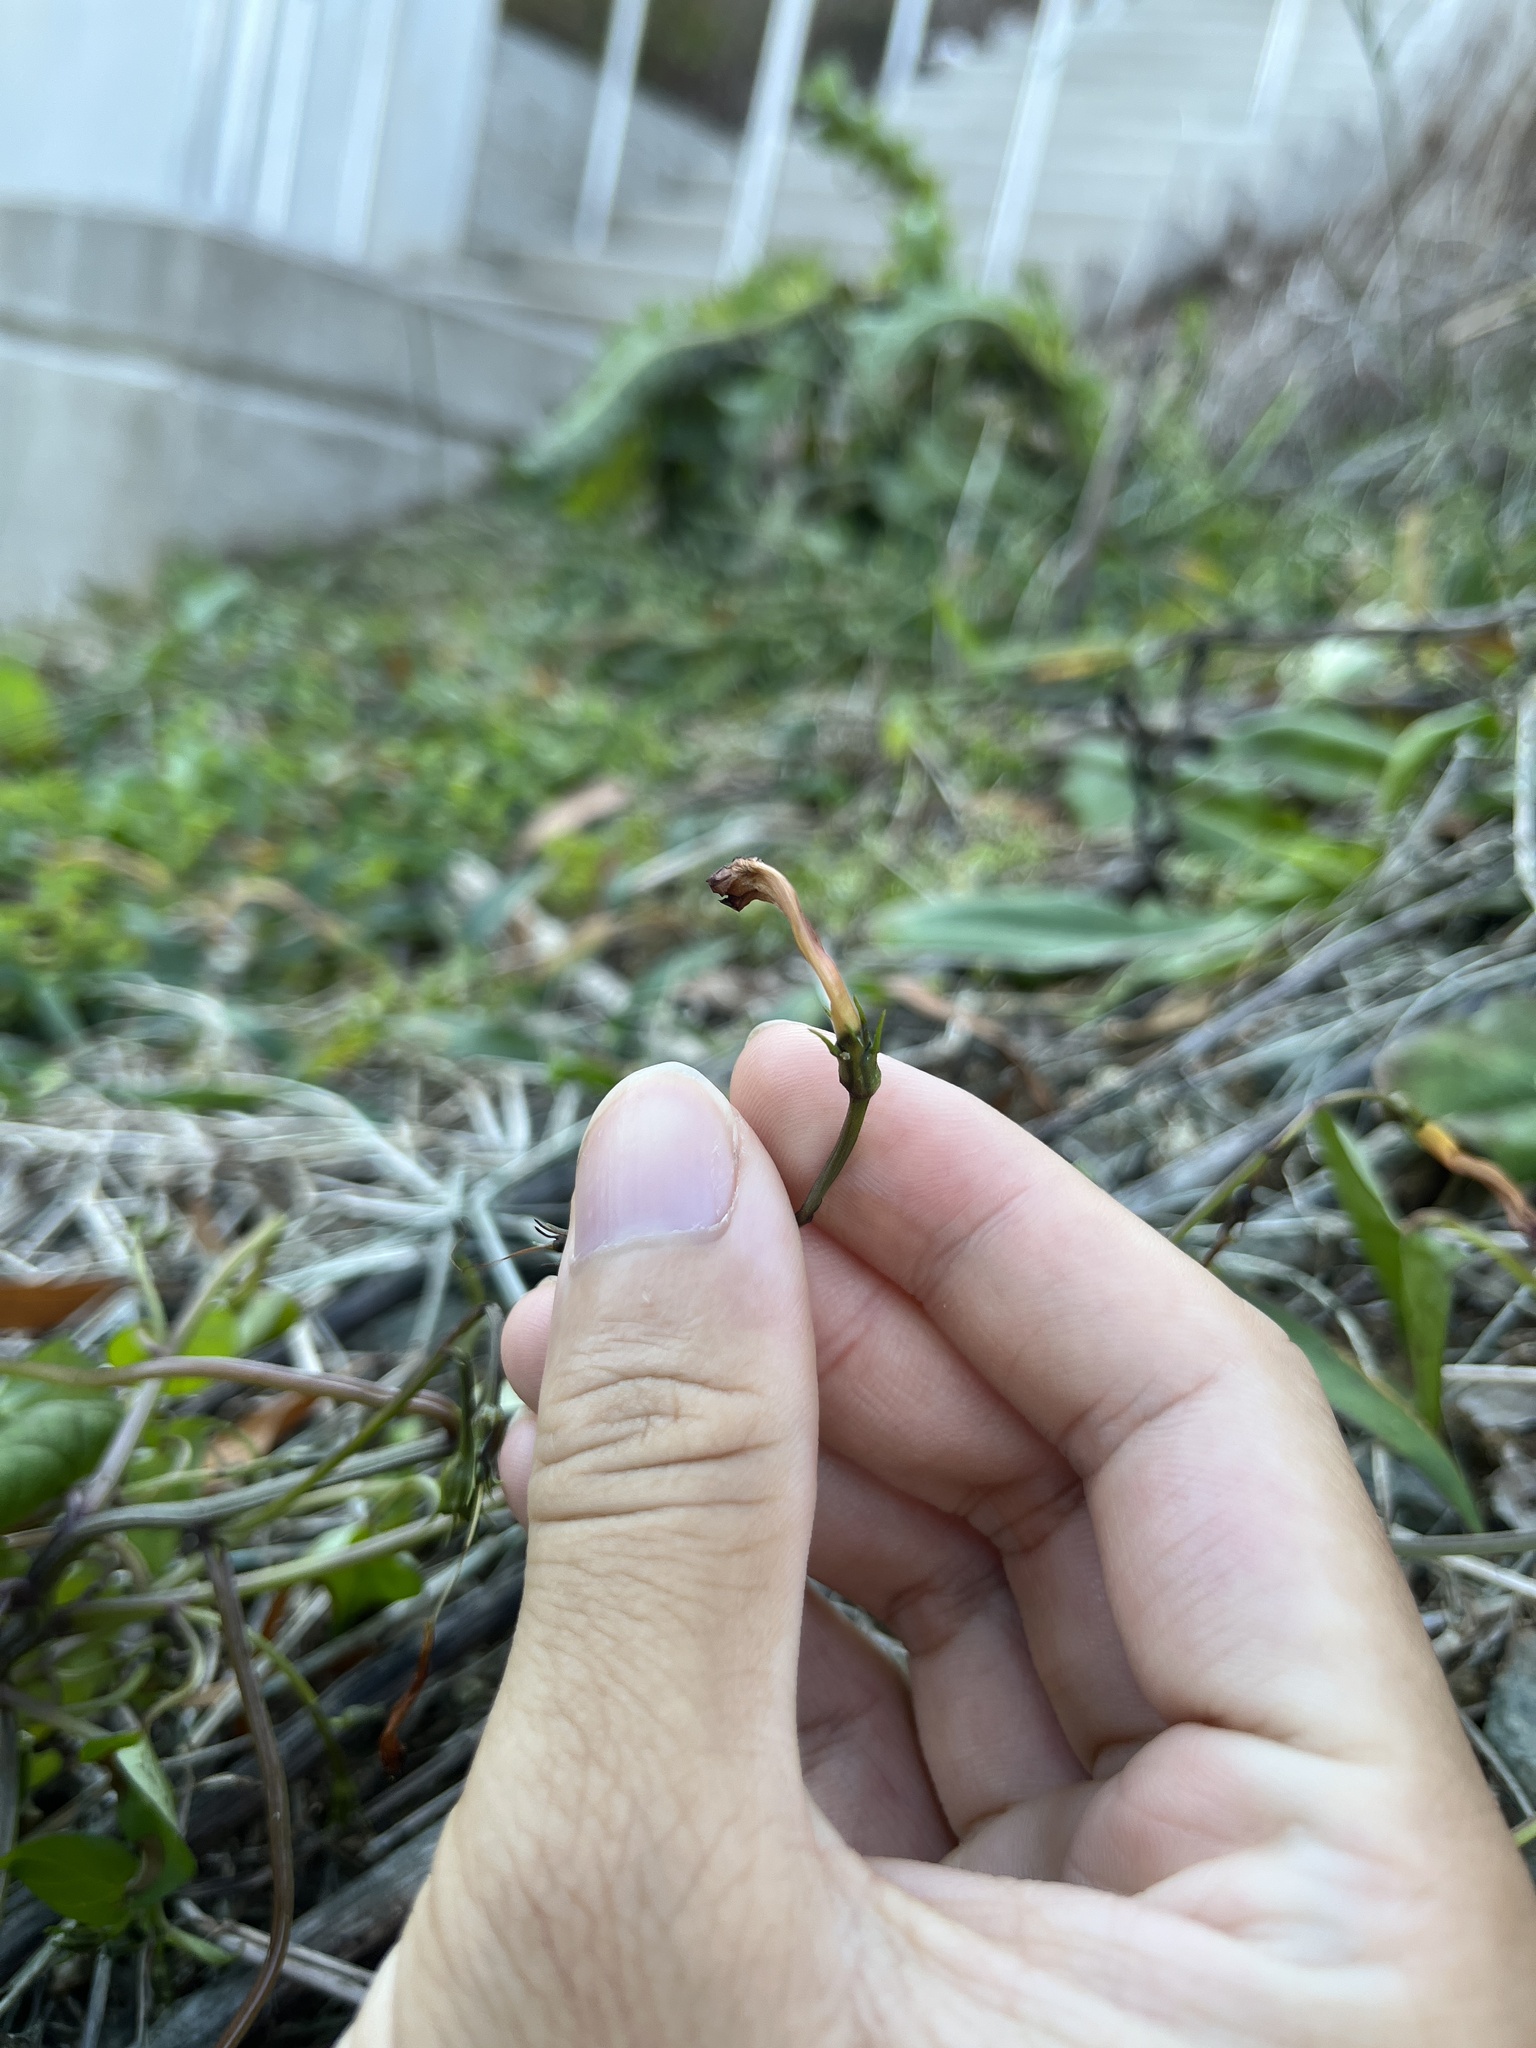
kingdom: Plantae
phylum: Tracheophyta
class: Magnoliopsida
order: Solanales
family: Convolvulaceae
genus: Ipomoea
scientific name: Ipomoea coccinea
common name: Red morning-glory
